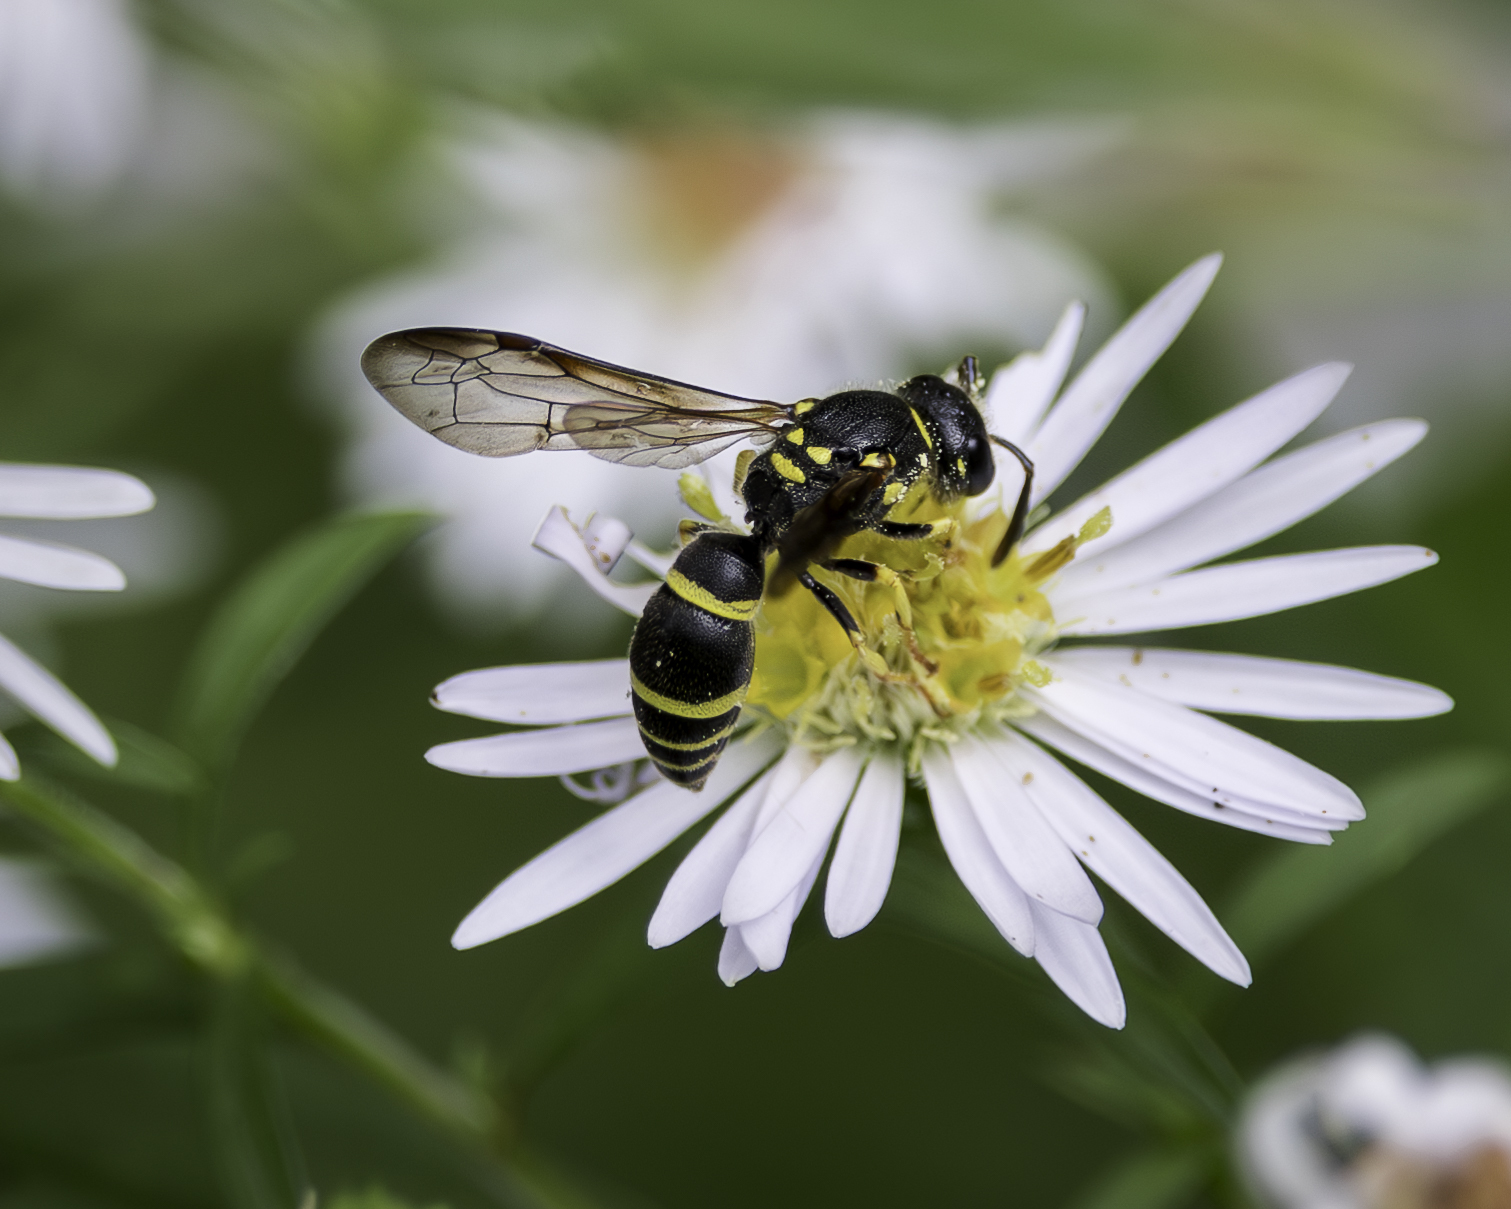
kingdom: Animalia
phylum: Arthropoda
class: Insecta
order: Hymenoptera
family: Vespidae
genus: Ancistrocerus
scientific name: Ancistrocerus adiabatus
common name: Bramble mason wasp
